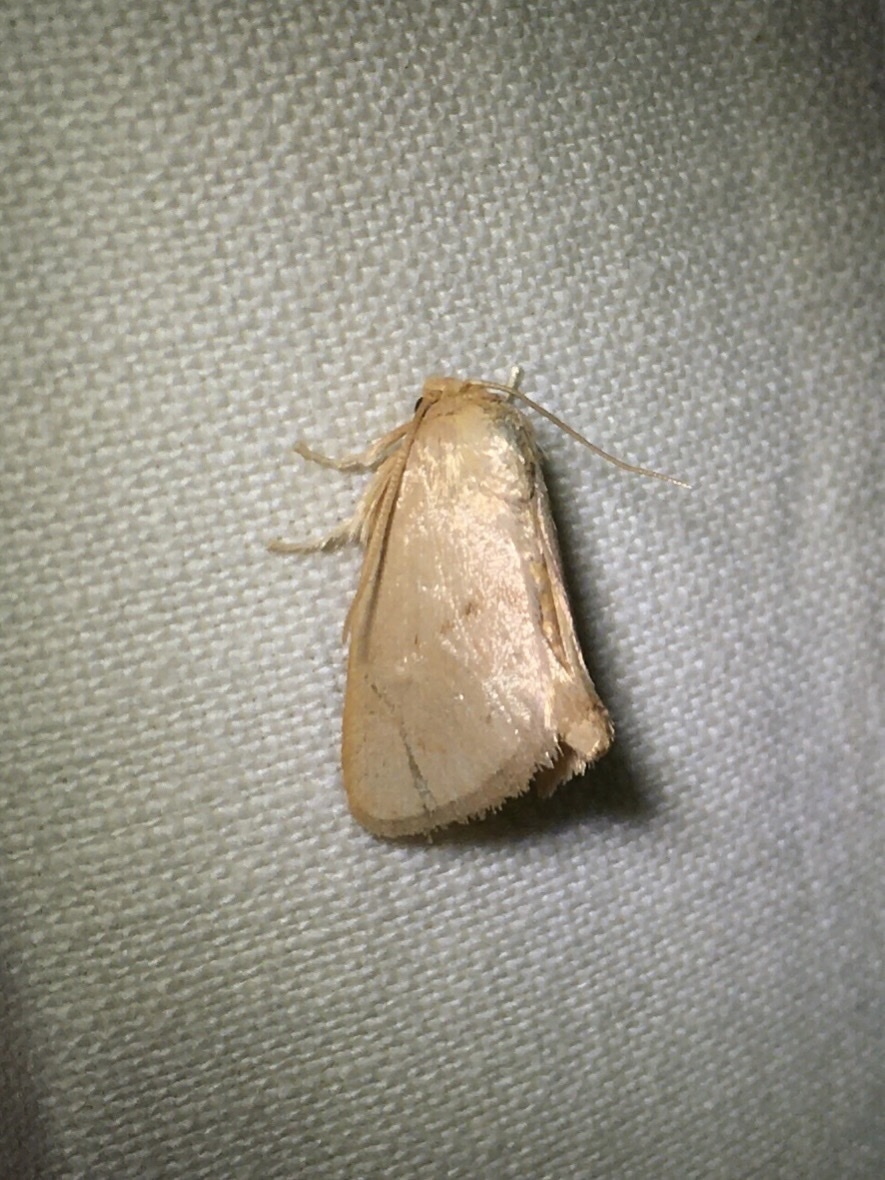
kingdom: Animalia
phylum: Arthropoda
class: Insecta
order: Lepidoptera
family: Limacodidae
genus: Tortricidia
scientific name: Tortricidia pallida
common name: Red-crossed button slug moth
